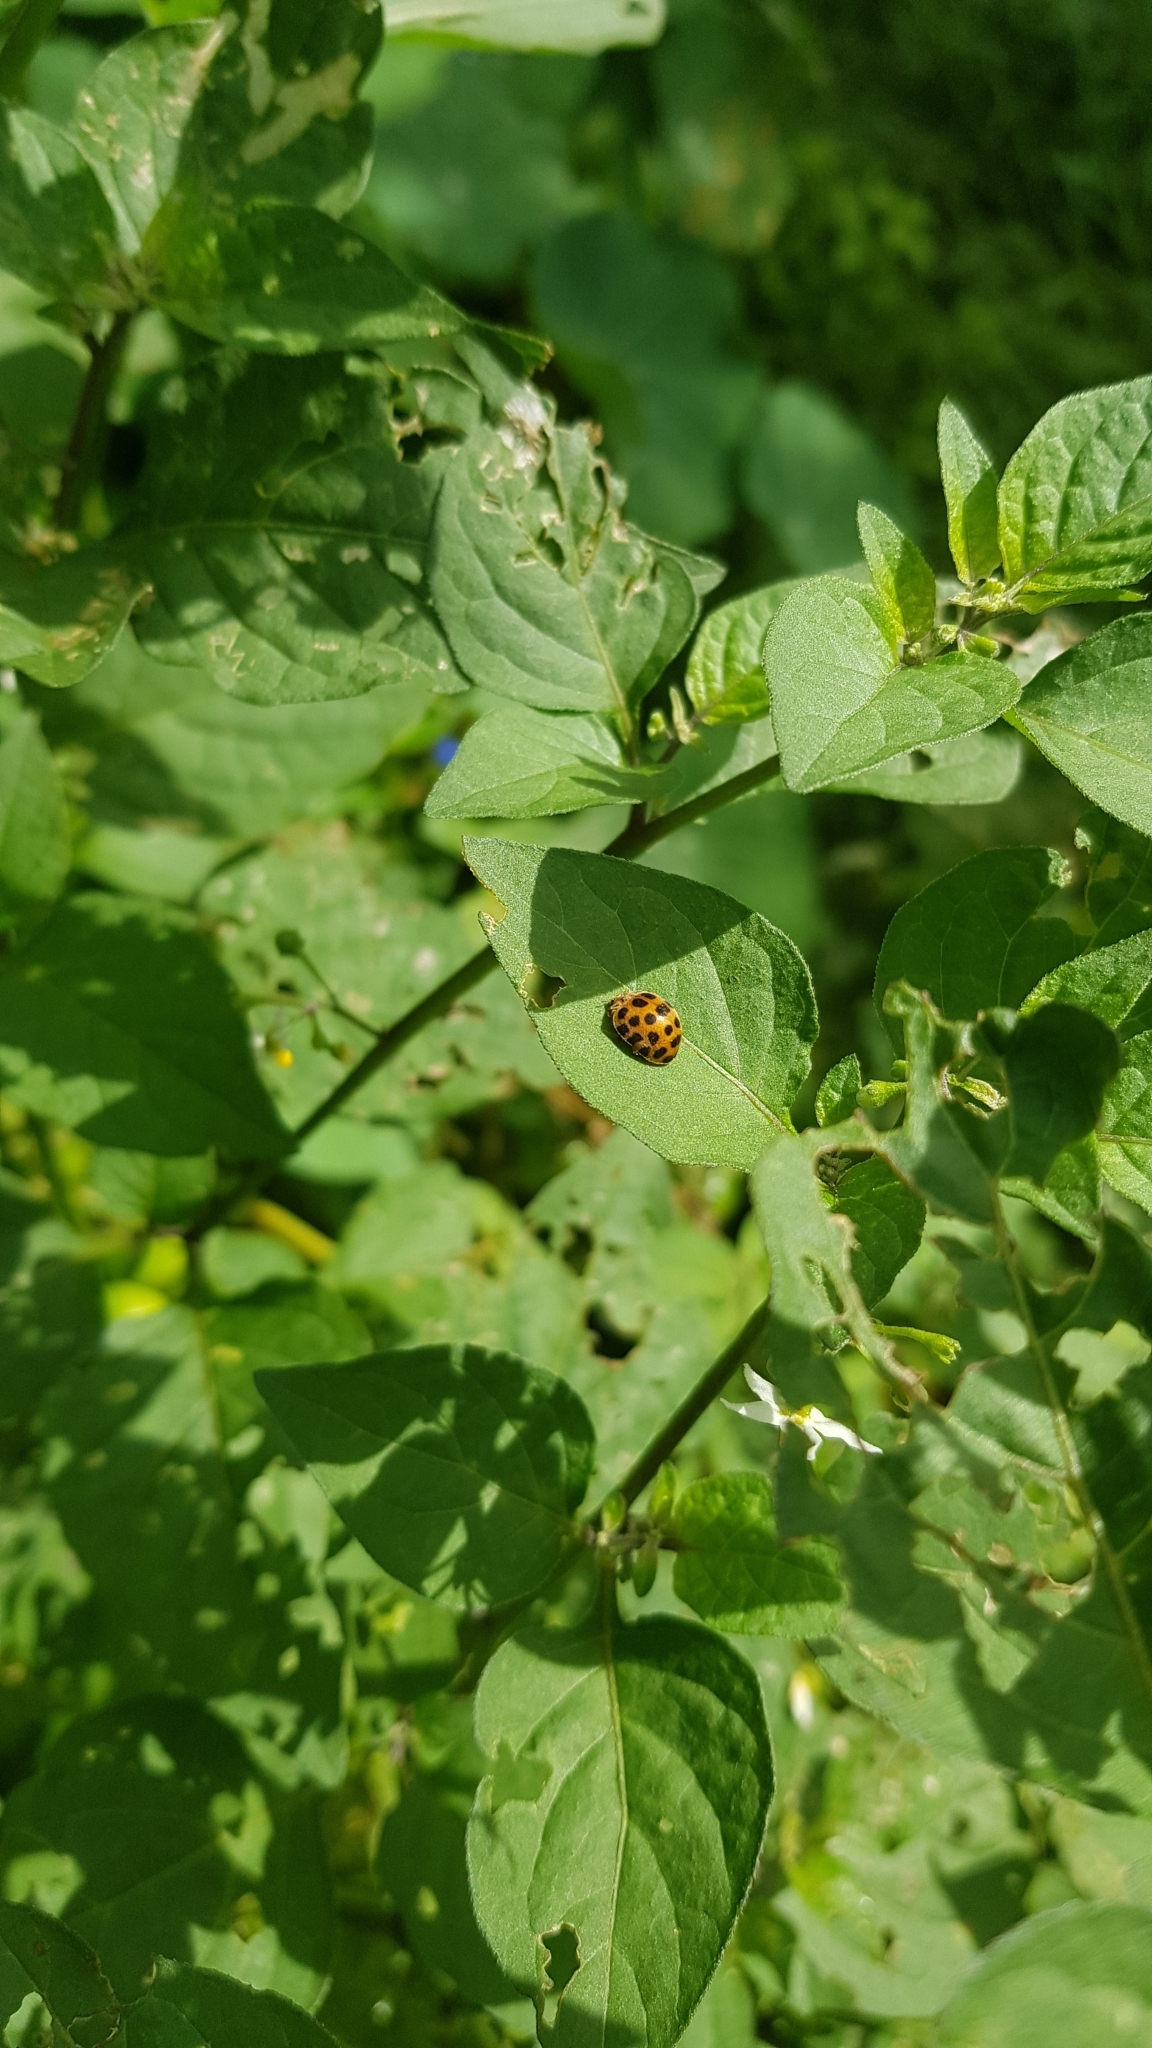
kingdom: Animalia
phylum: Arthropoda
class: Insecta
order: Coleoptera
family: Coccinellidae
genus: Henosepilachna
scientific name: Henosepilachna vigintioctopunctata
